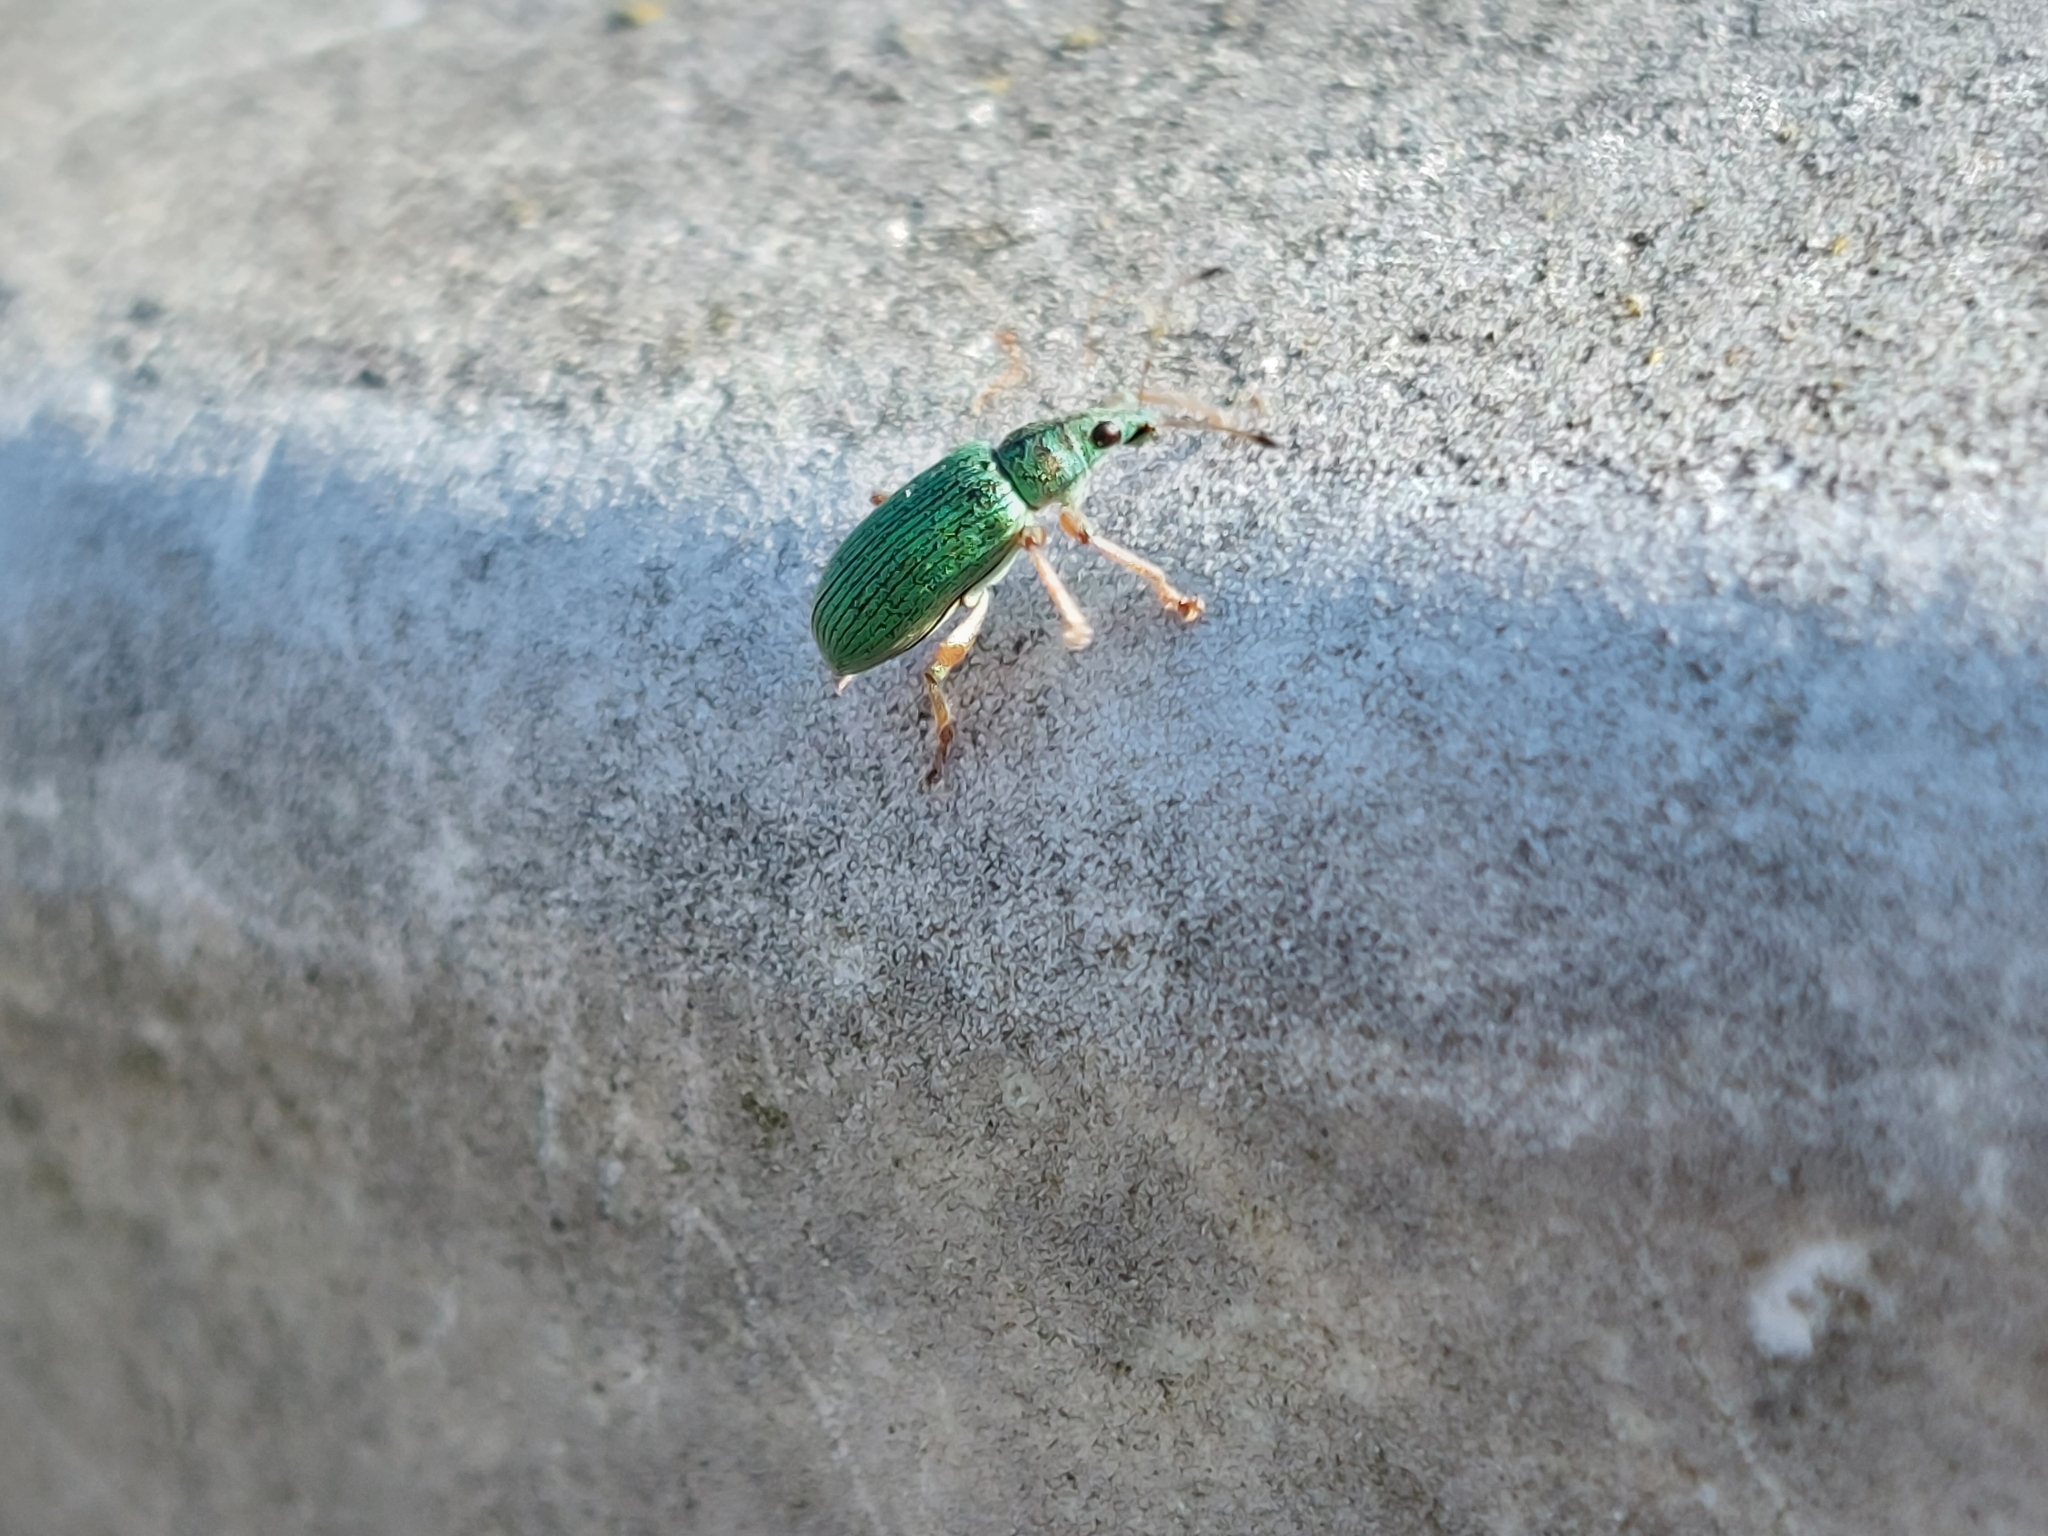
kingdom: Animalia
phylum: Arthropoda
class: Insecta
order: Coleoptera
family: Curculionidae
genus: Polydrusus
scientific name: Polydrusus formosus
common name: Weevil
